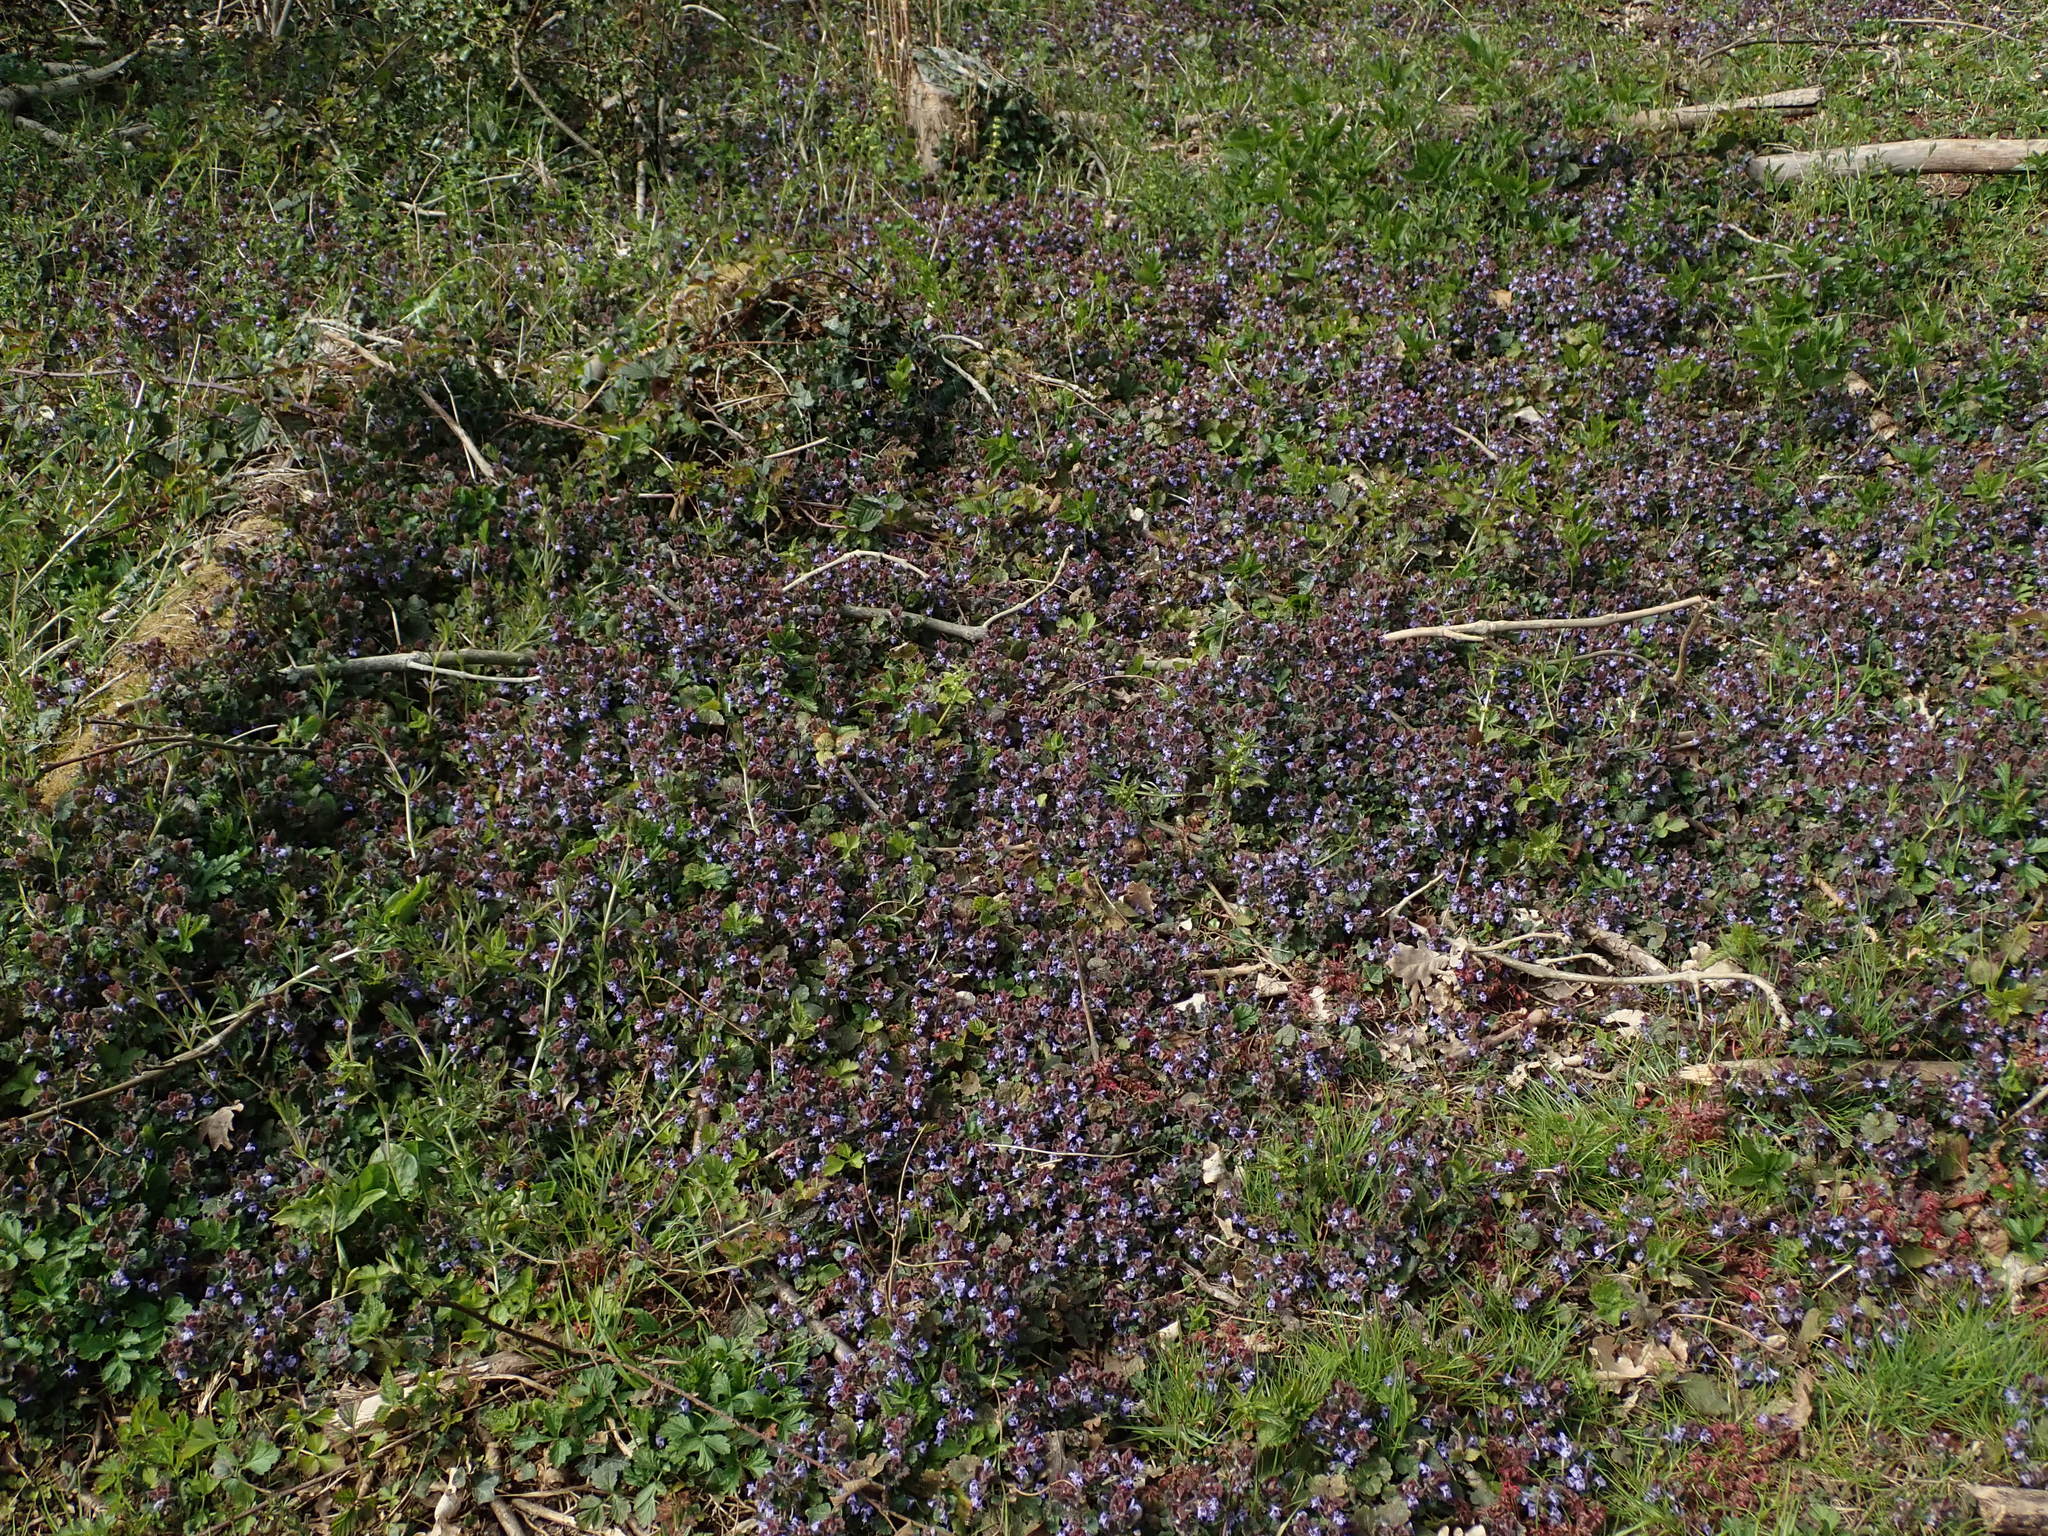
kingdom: Plantae
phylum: Tracheophyta
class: Magnoliopsida
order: Lamiales
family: Lamiaceae
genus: Glechoma
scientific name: Glechoma hederacea
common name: Ground ivy
